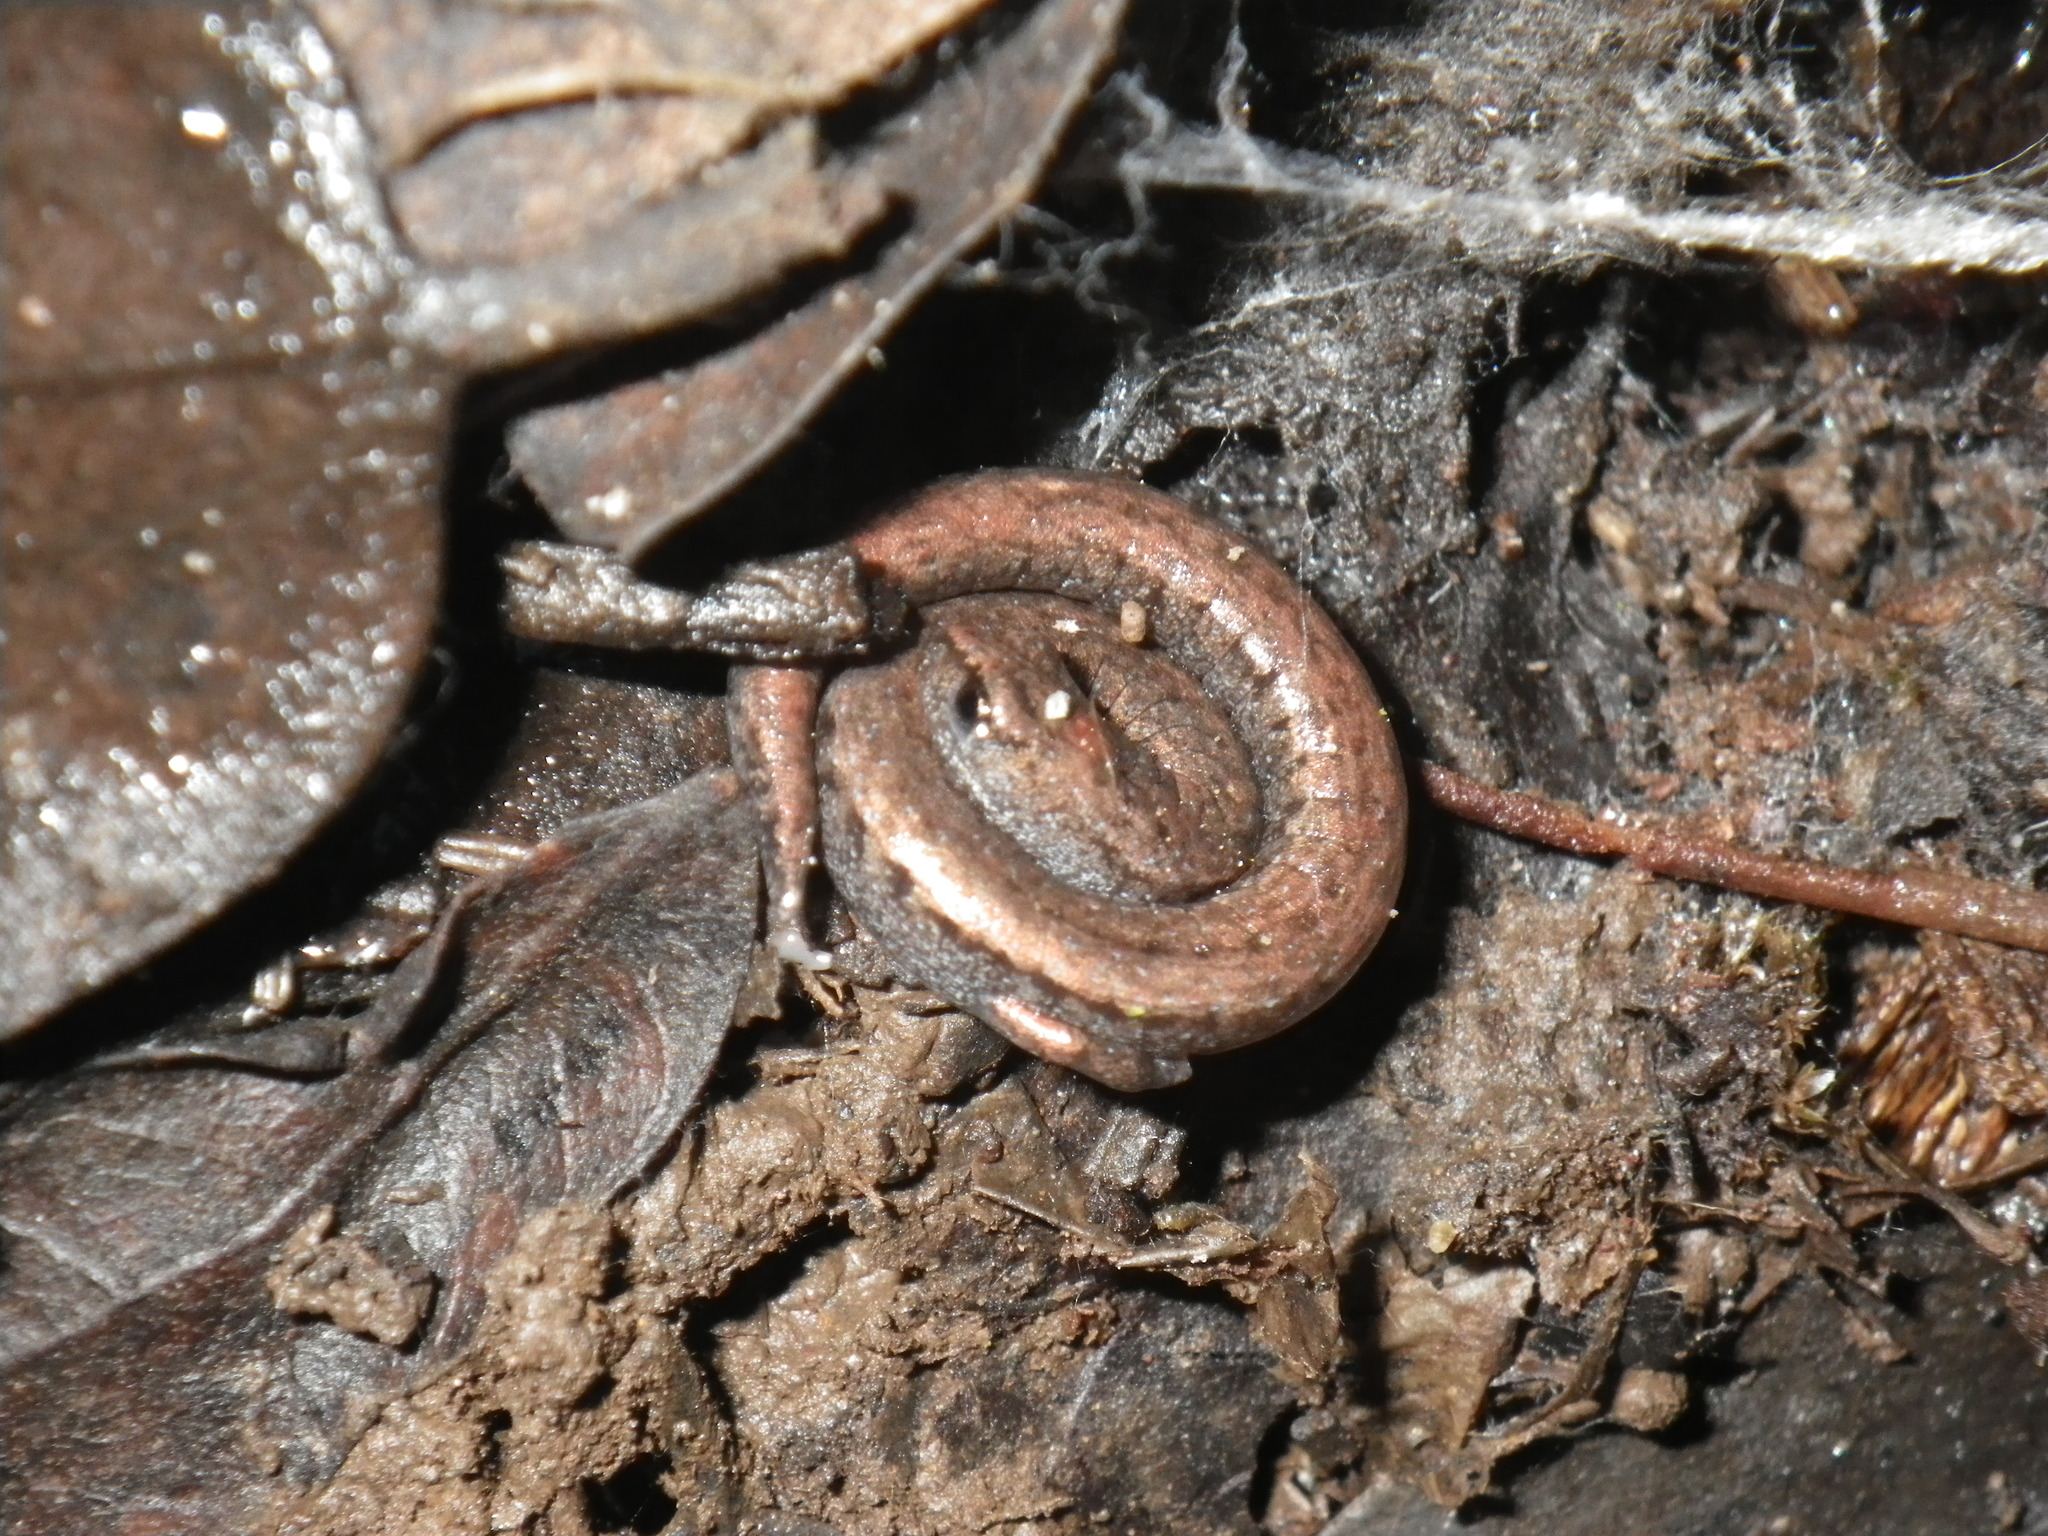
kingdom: Animalia
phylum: Chordata
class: Amphibia
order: Caudata
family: Plethodontidae
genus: Batrachoseps
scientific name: Batrachoseps attenuatus
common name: California slender salamander
